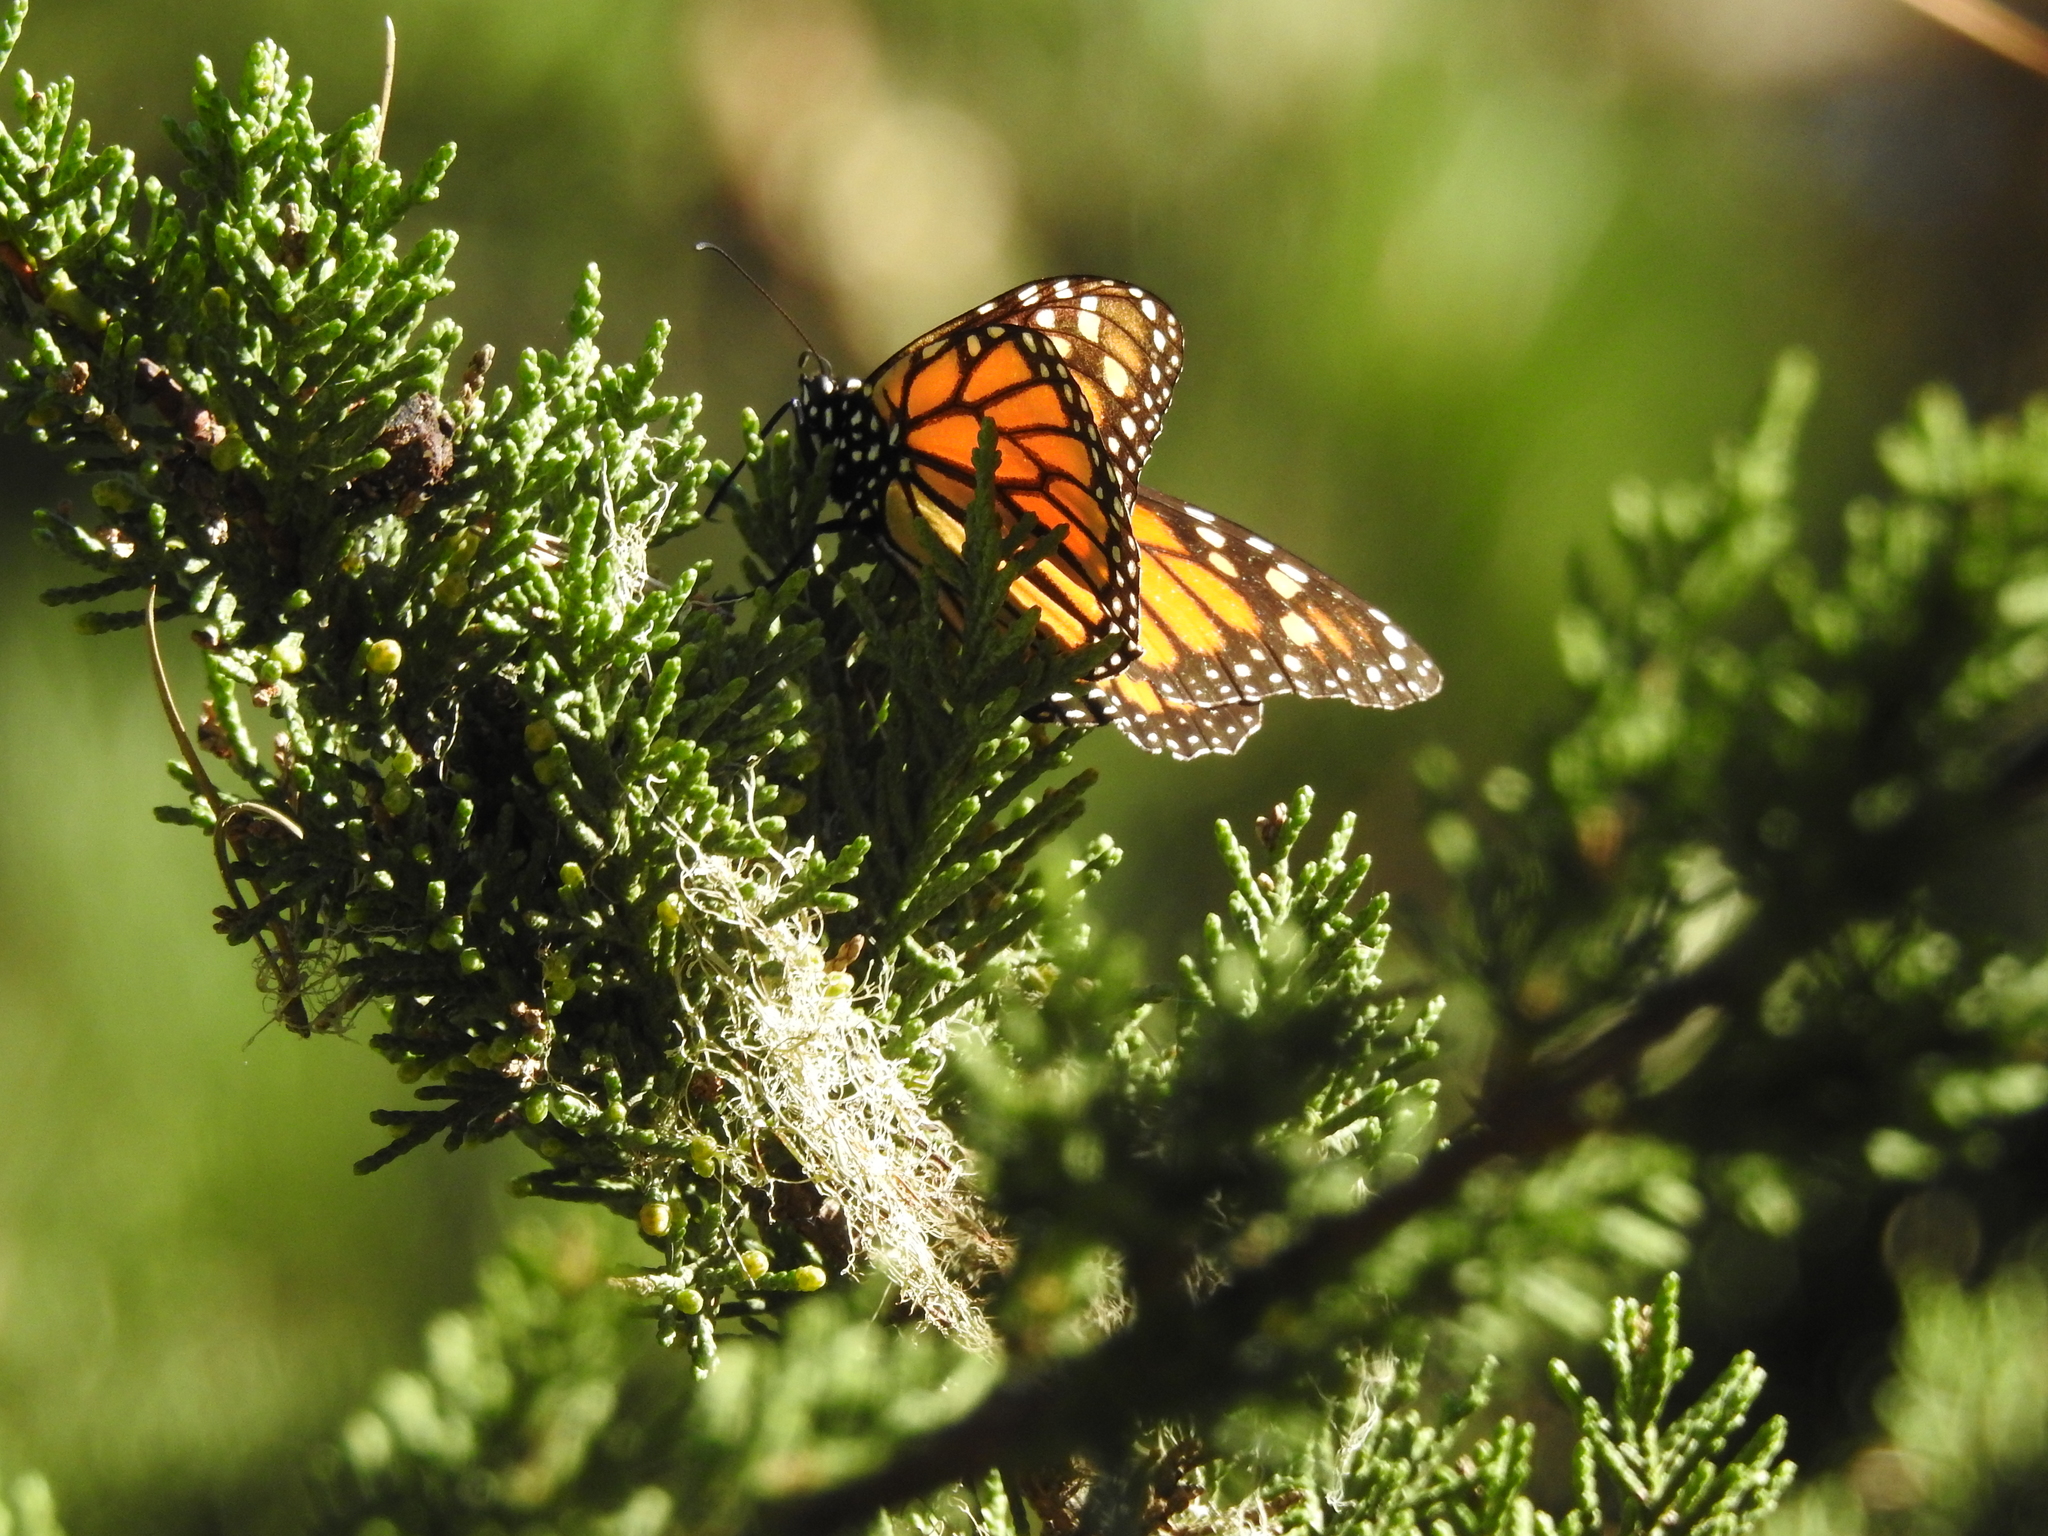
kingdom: Animalia
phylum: Arthropoda
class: Insecta
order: Lepidoptera
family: Nymphalidae
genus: Danaus
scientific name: Danaus plexippus
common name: Monarch
